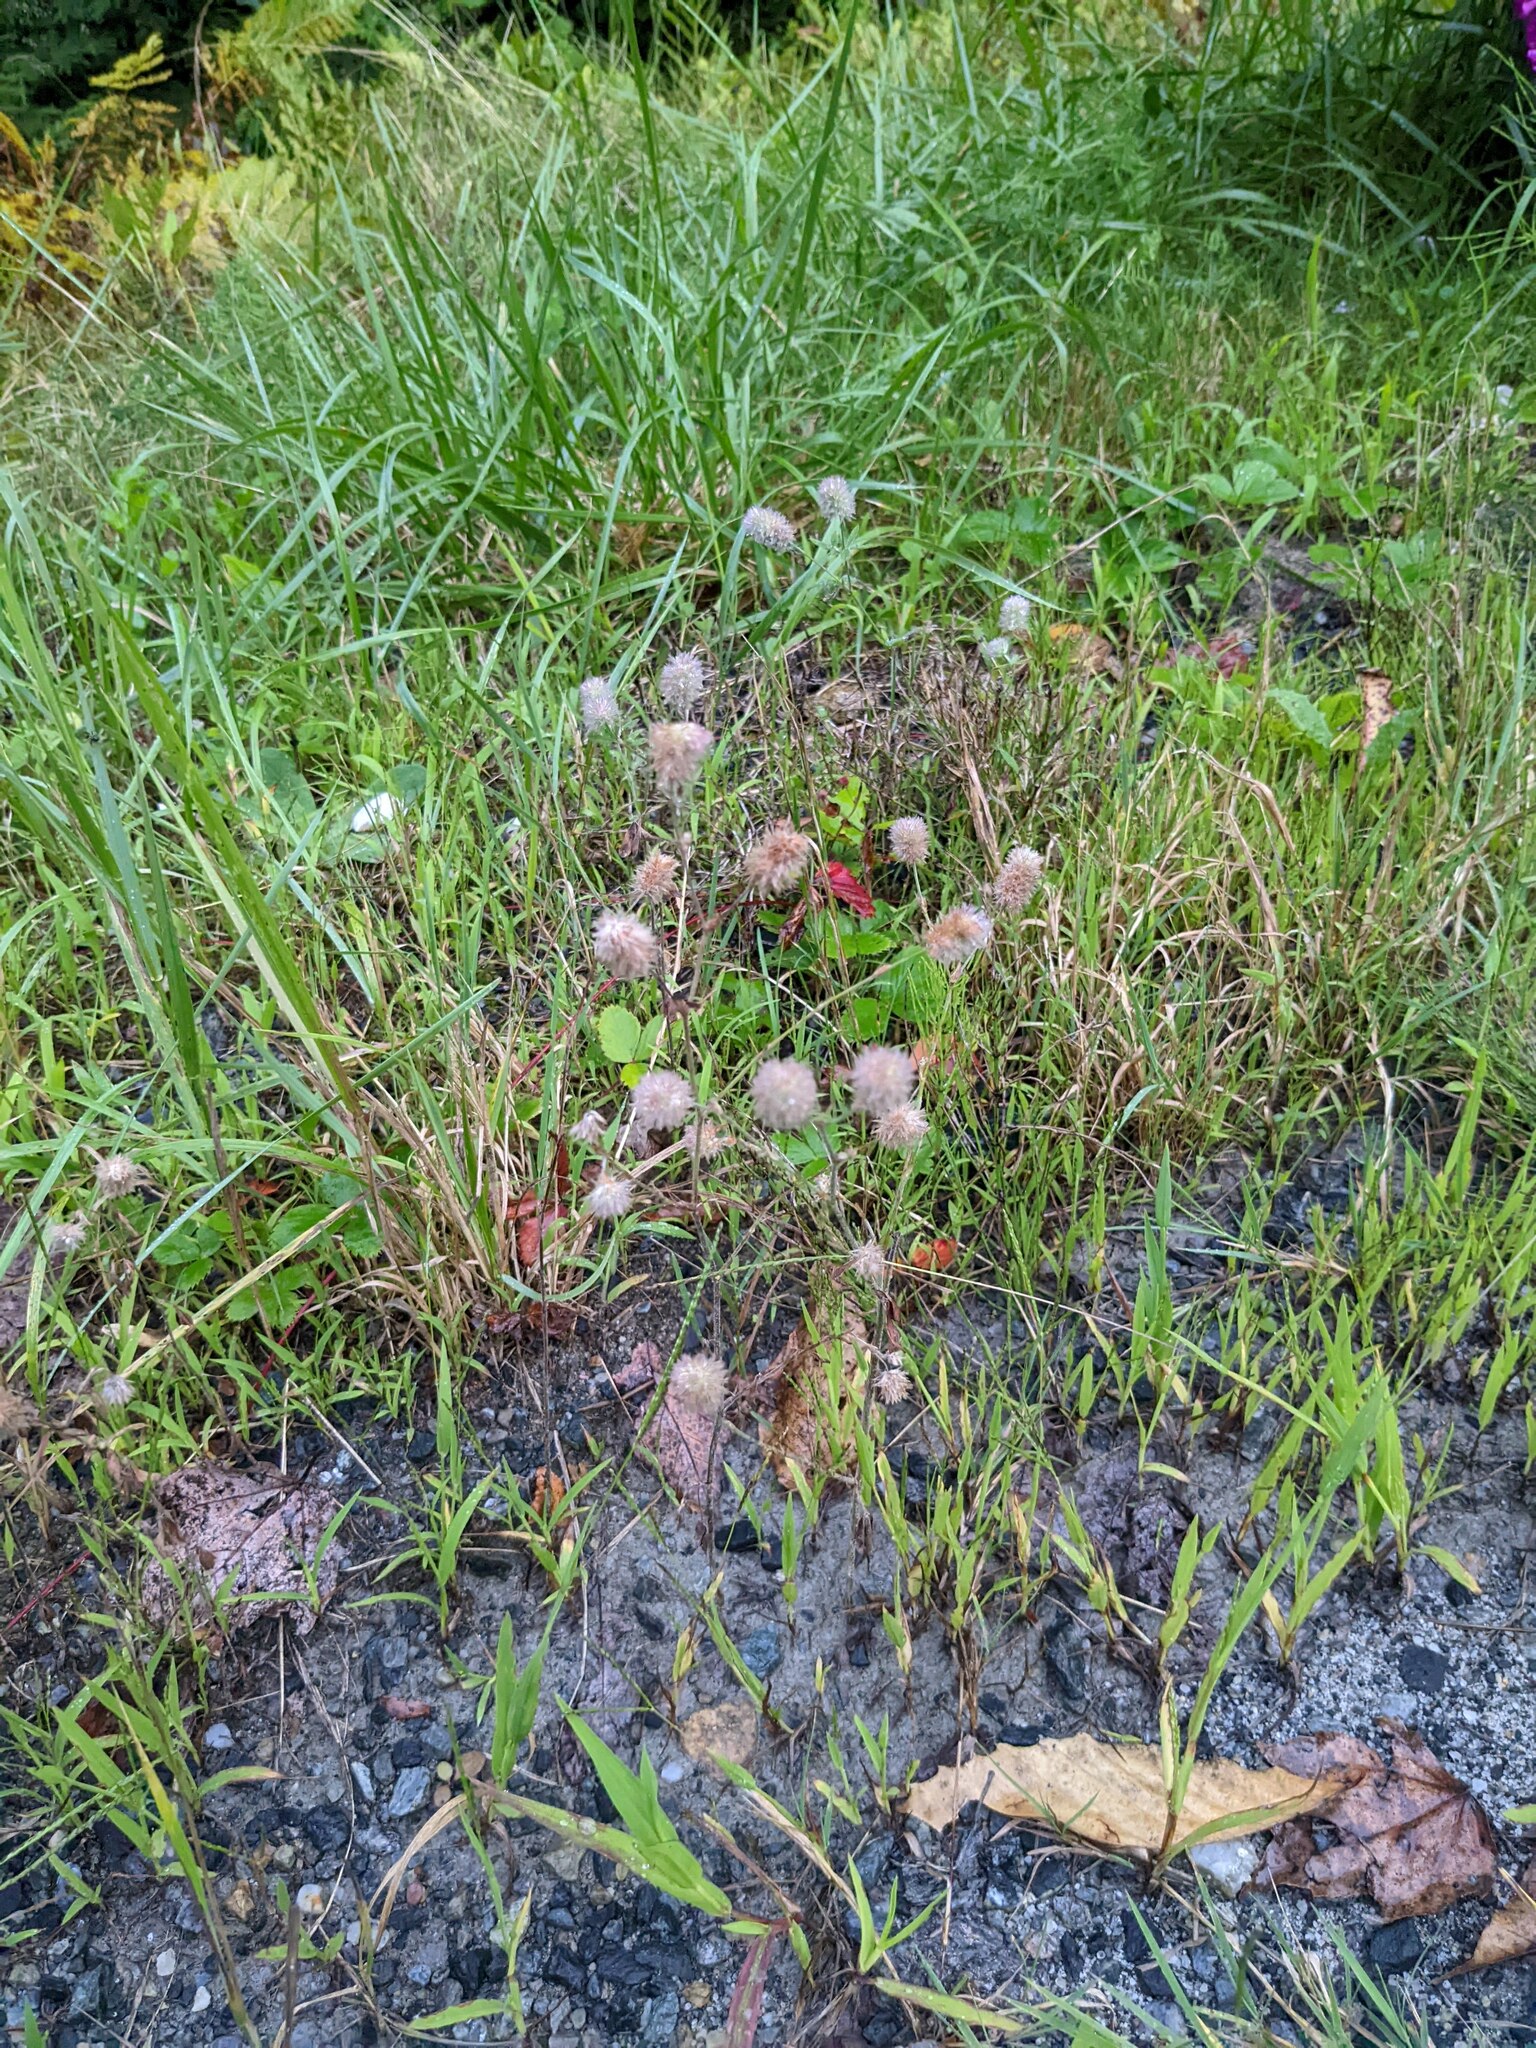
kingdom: Plantae
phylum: Tracheophyta
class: Magnoliopsida
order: Fabales
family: Fabaceae
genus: Trifolium
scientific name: Trifolium arvense
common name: Hare's-foot clover
